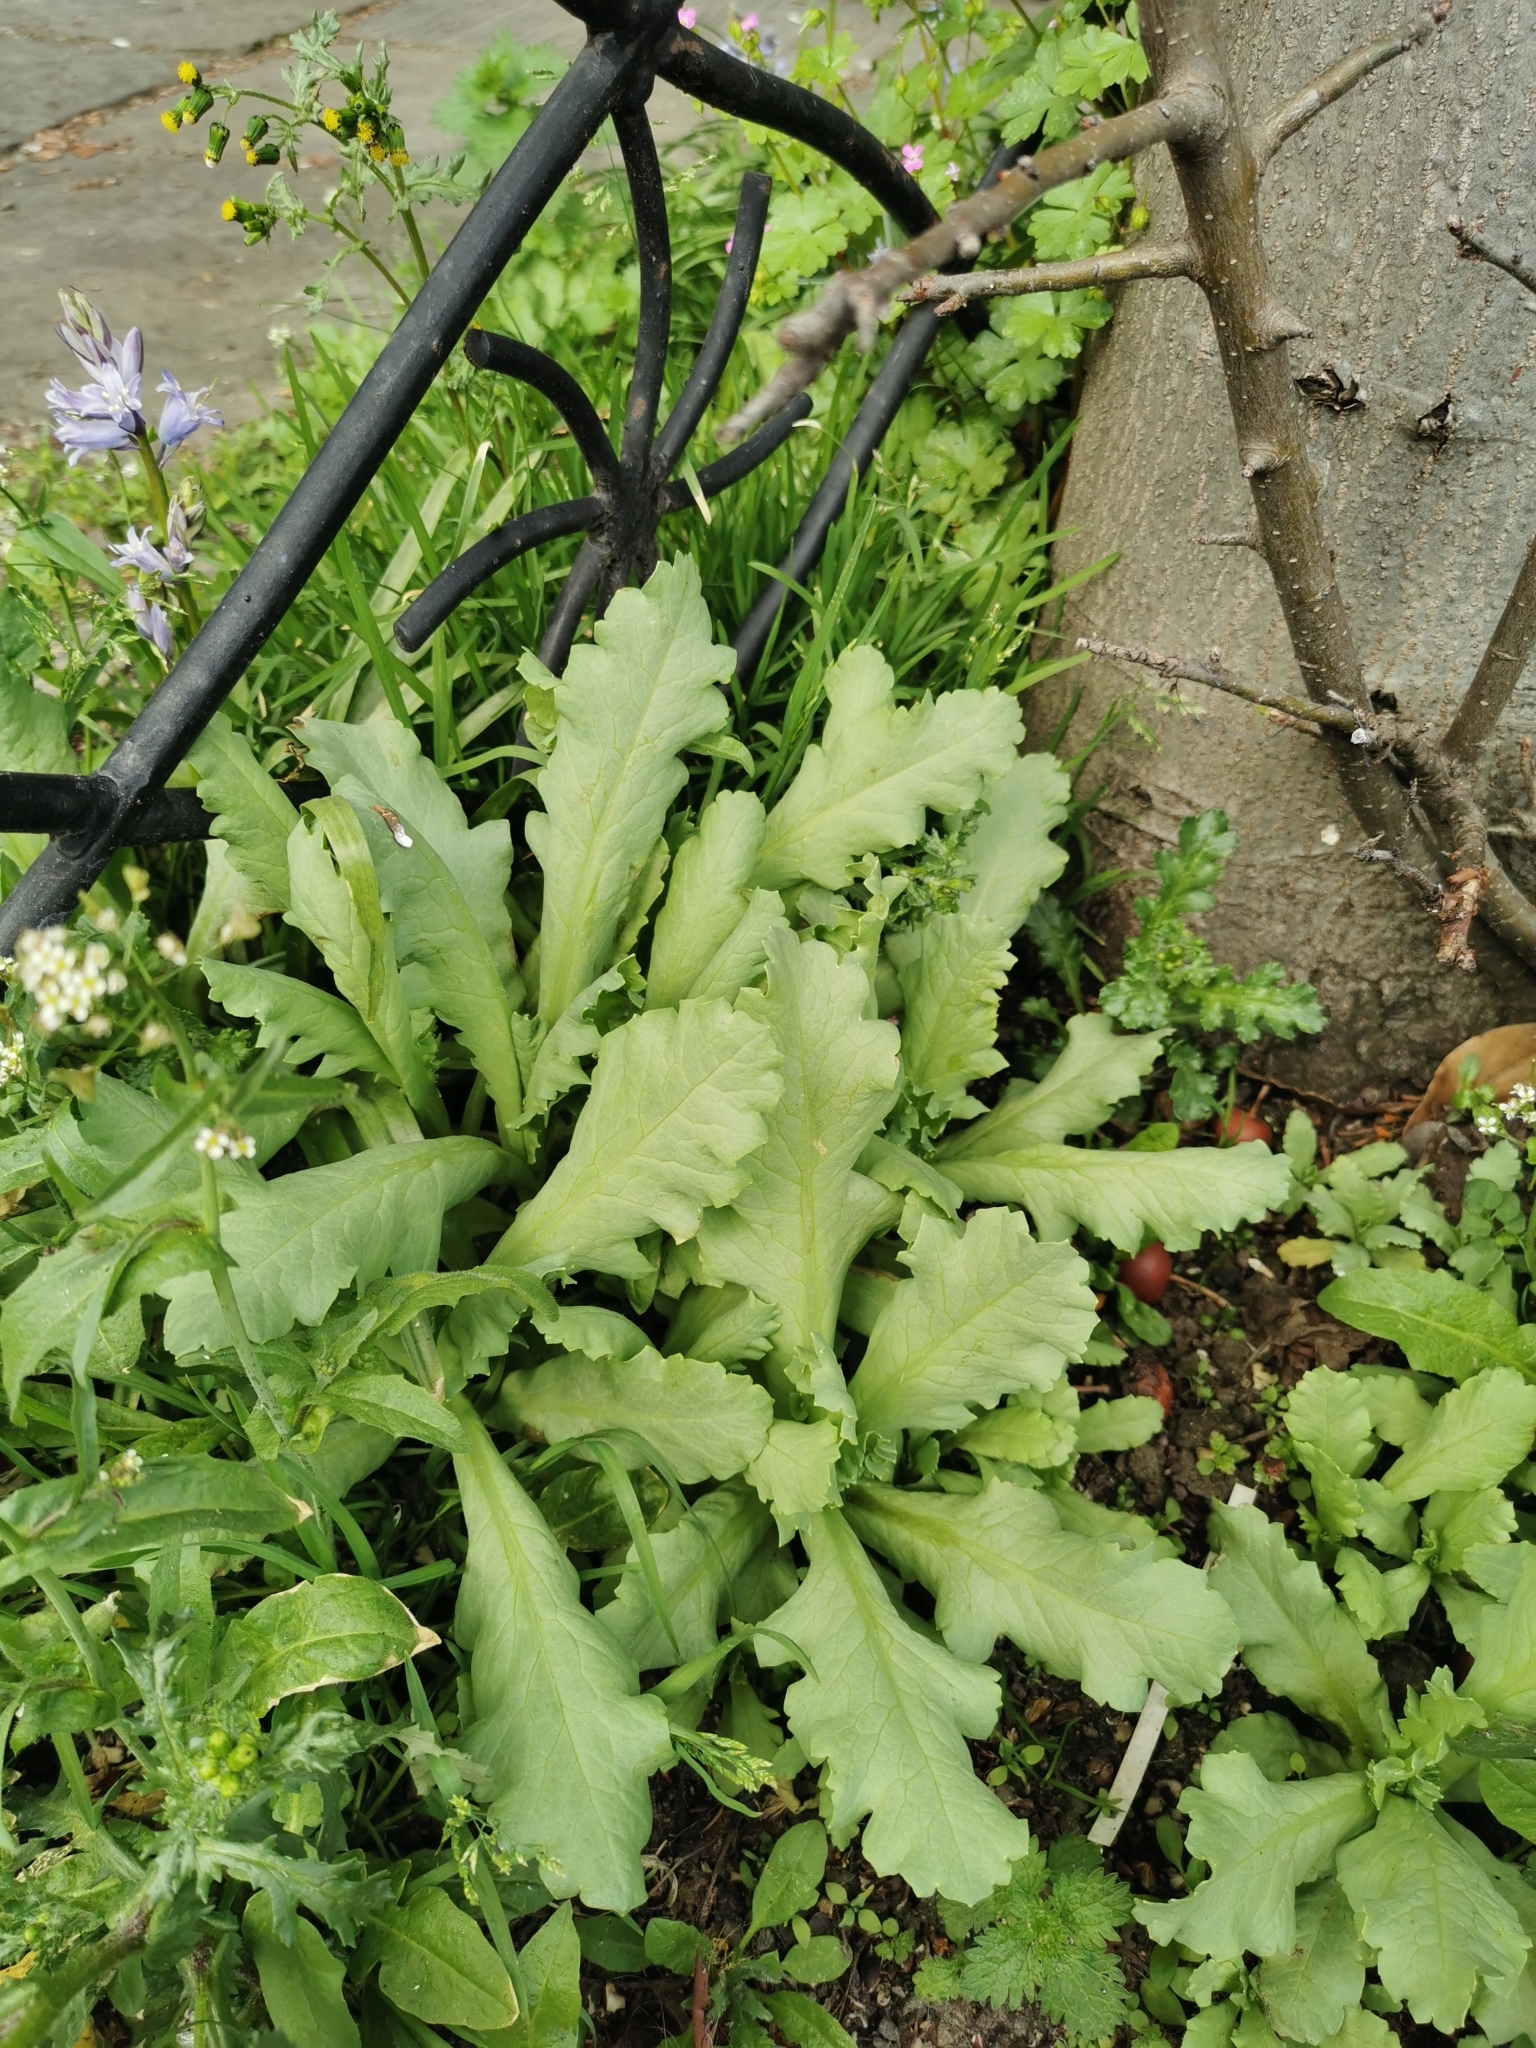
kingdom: Plantae
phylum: Tracheophyta
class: Magnoliopsida
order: Ranunculales
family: Papaveraceae
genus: Papaver
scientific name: Papaver somniferum
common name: Opium poppy
